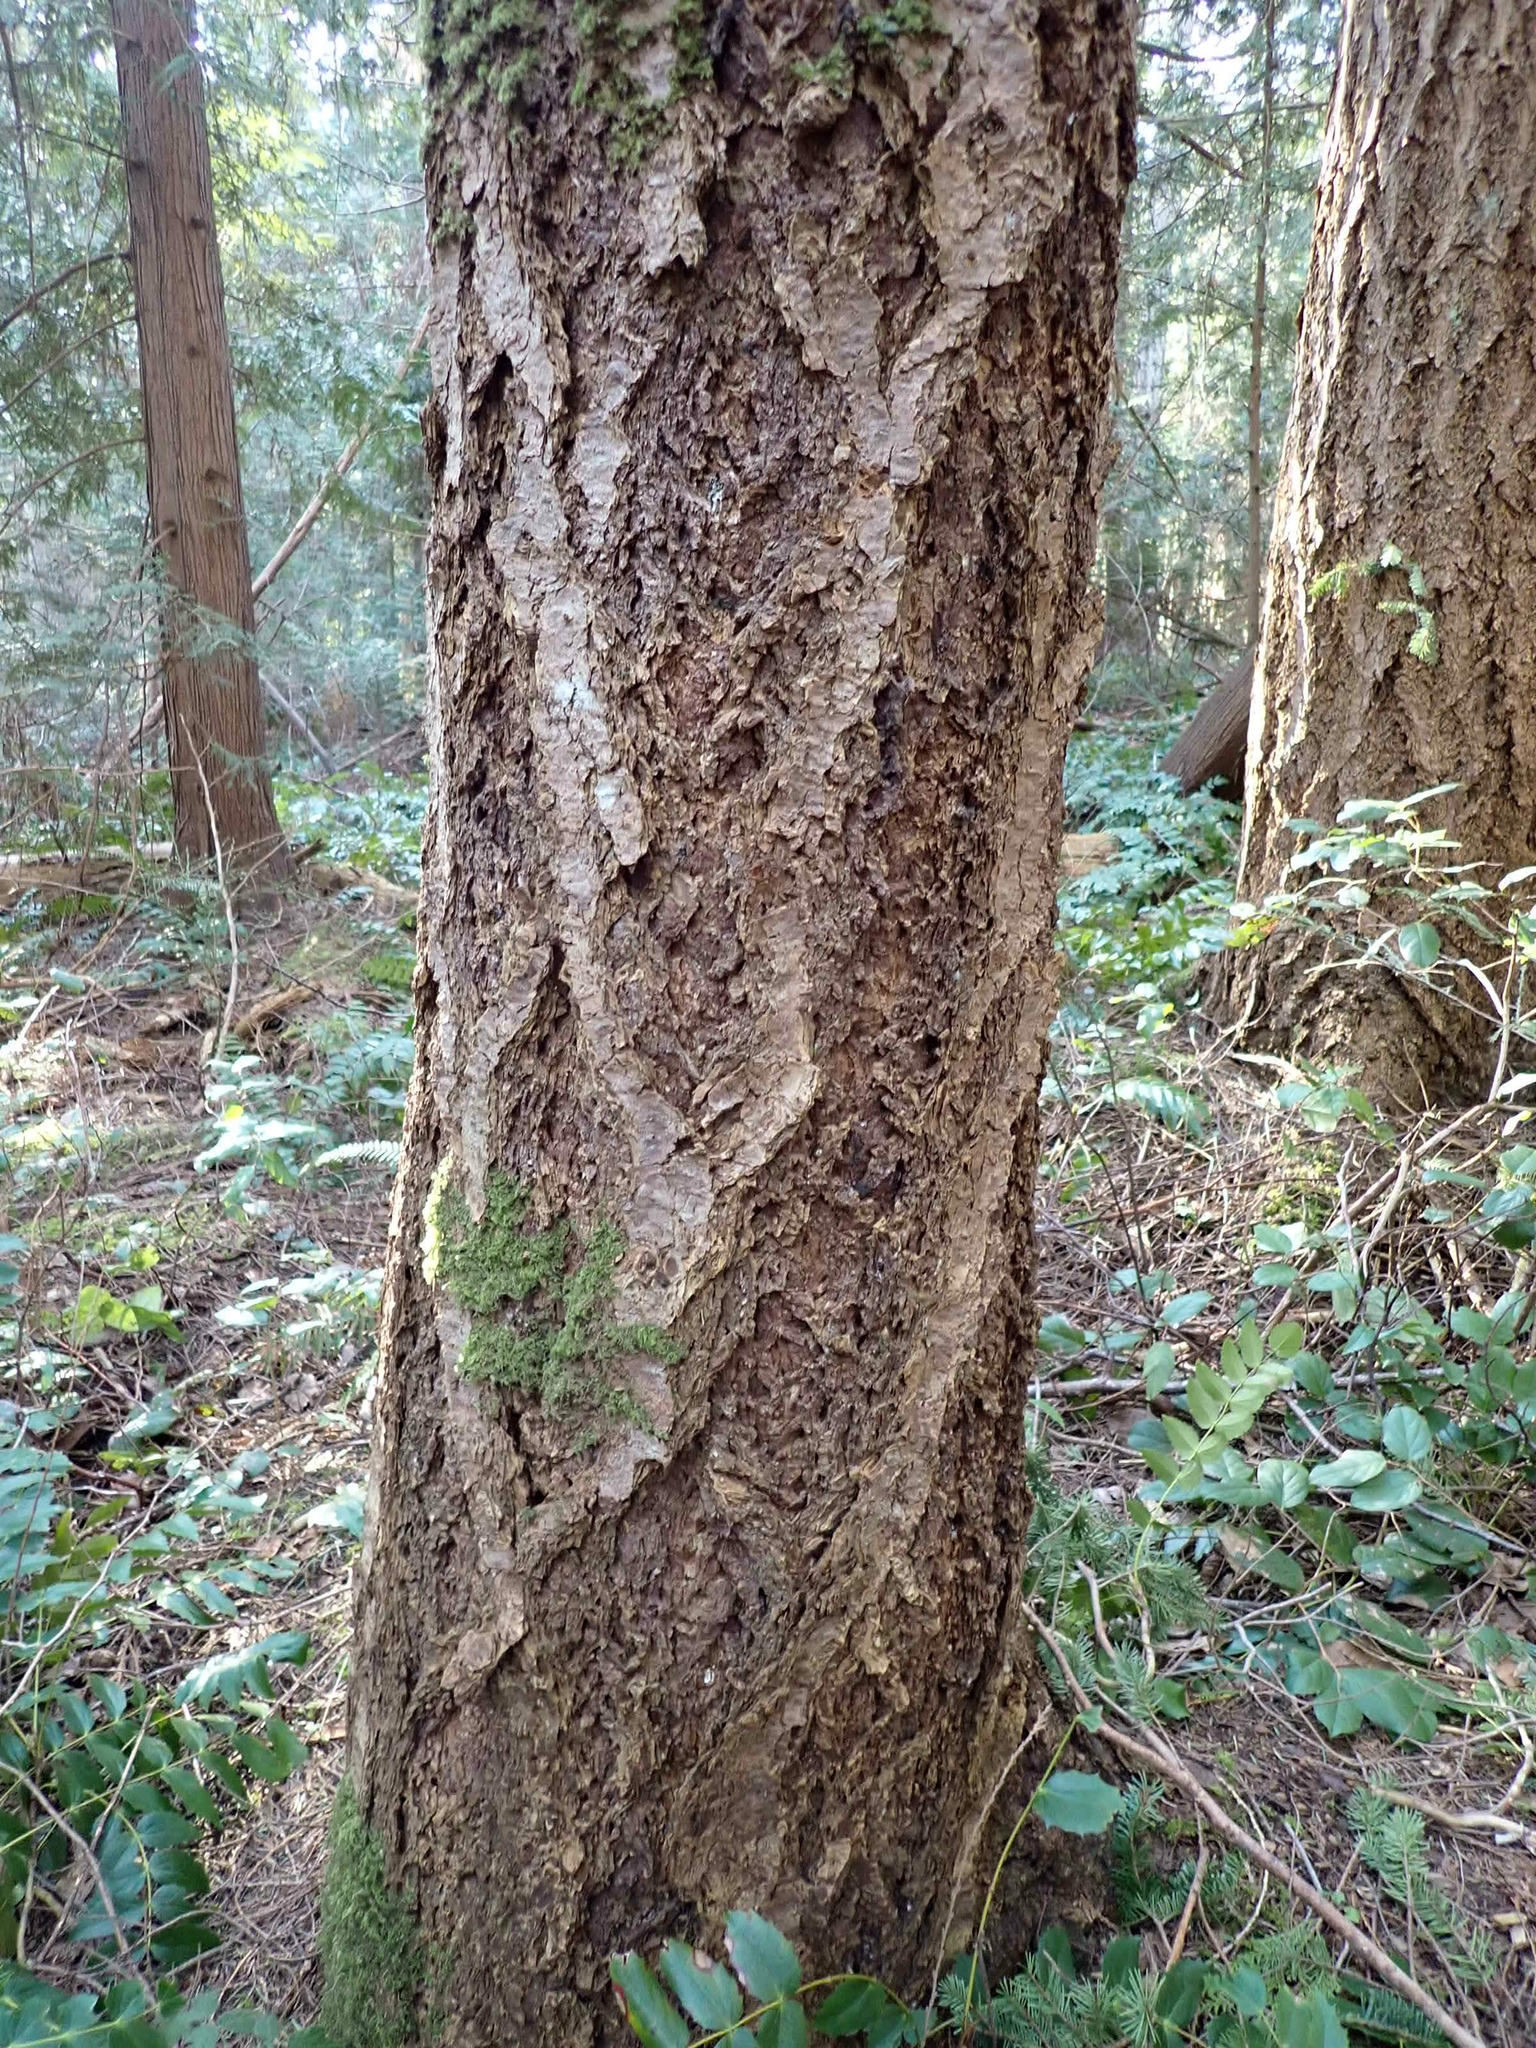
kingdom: Plantae
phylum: Tracheophyta
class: Pinopsida
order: Pinales
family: Pinaceae
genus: Pseudotsuga
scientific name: Pseudotsuga menziesii
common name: Douglas fir
